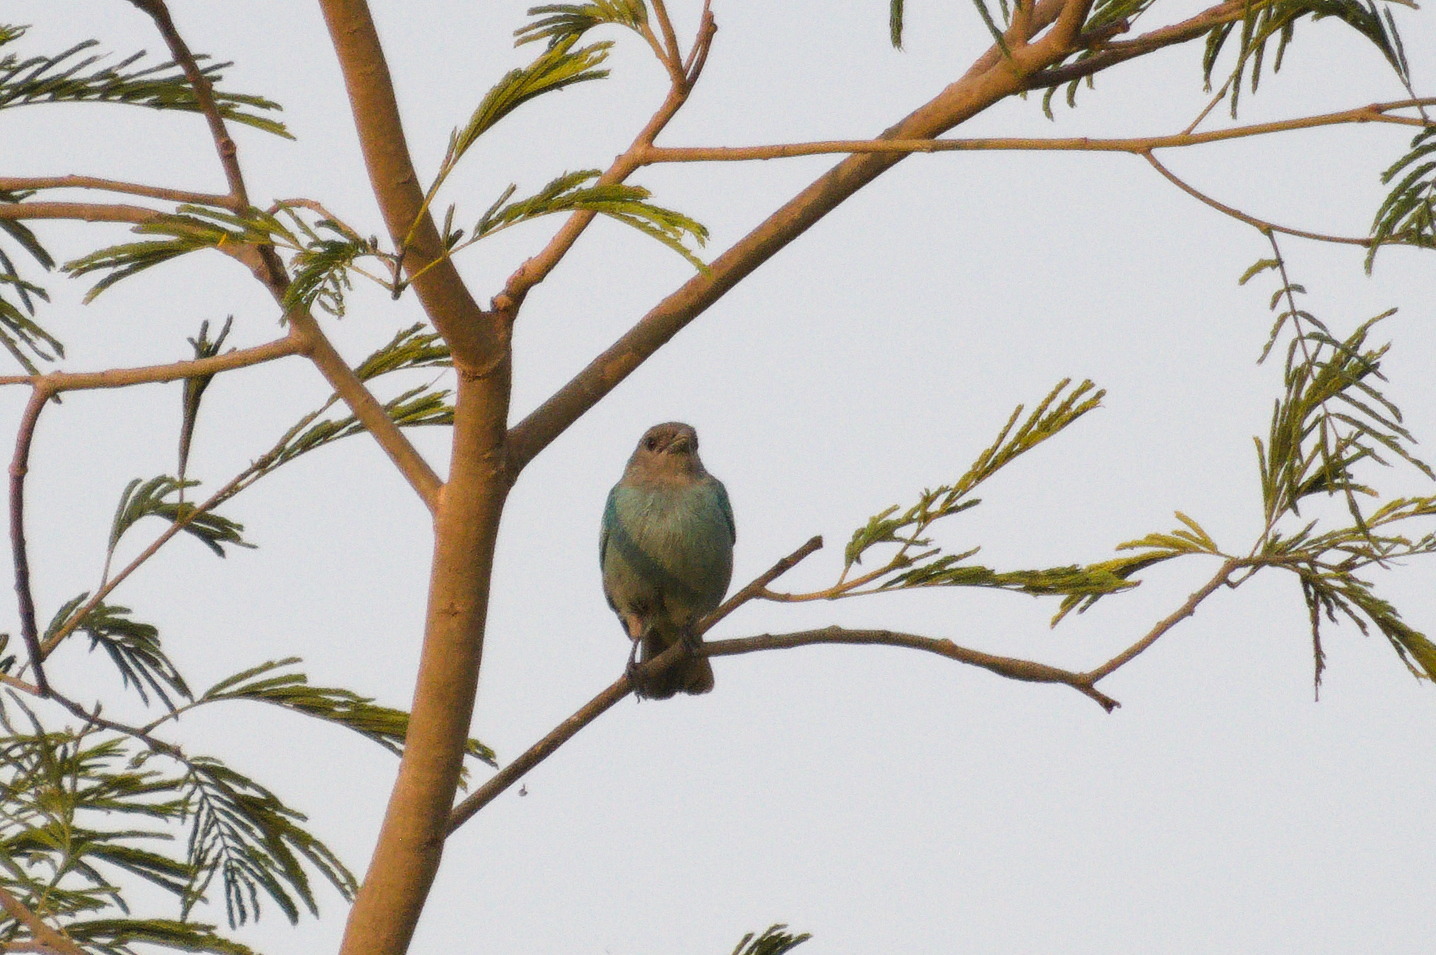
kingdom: Animalia
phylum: Chordata
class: Aves
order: Passeriformes
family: Thraupidae
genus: Thraupis
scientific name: Thraupis glaucocolpa
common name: Glaucous tanager
